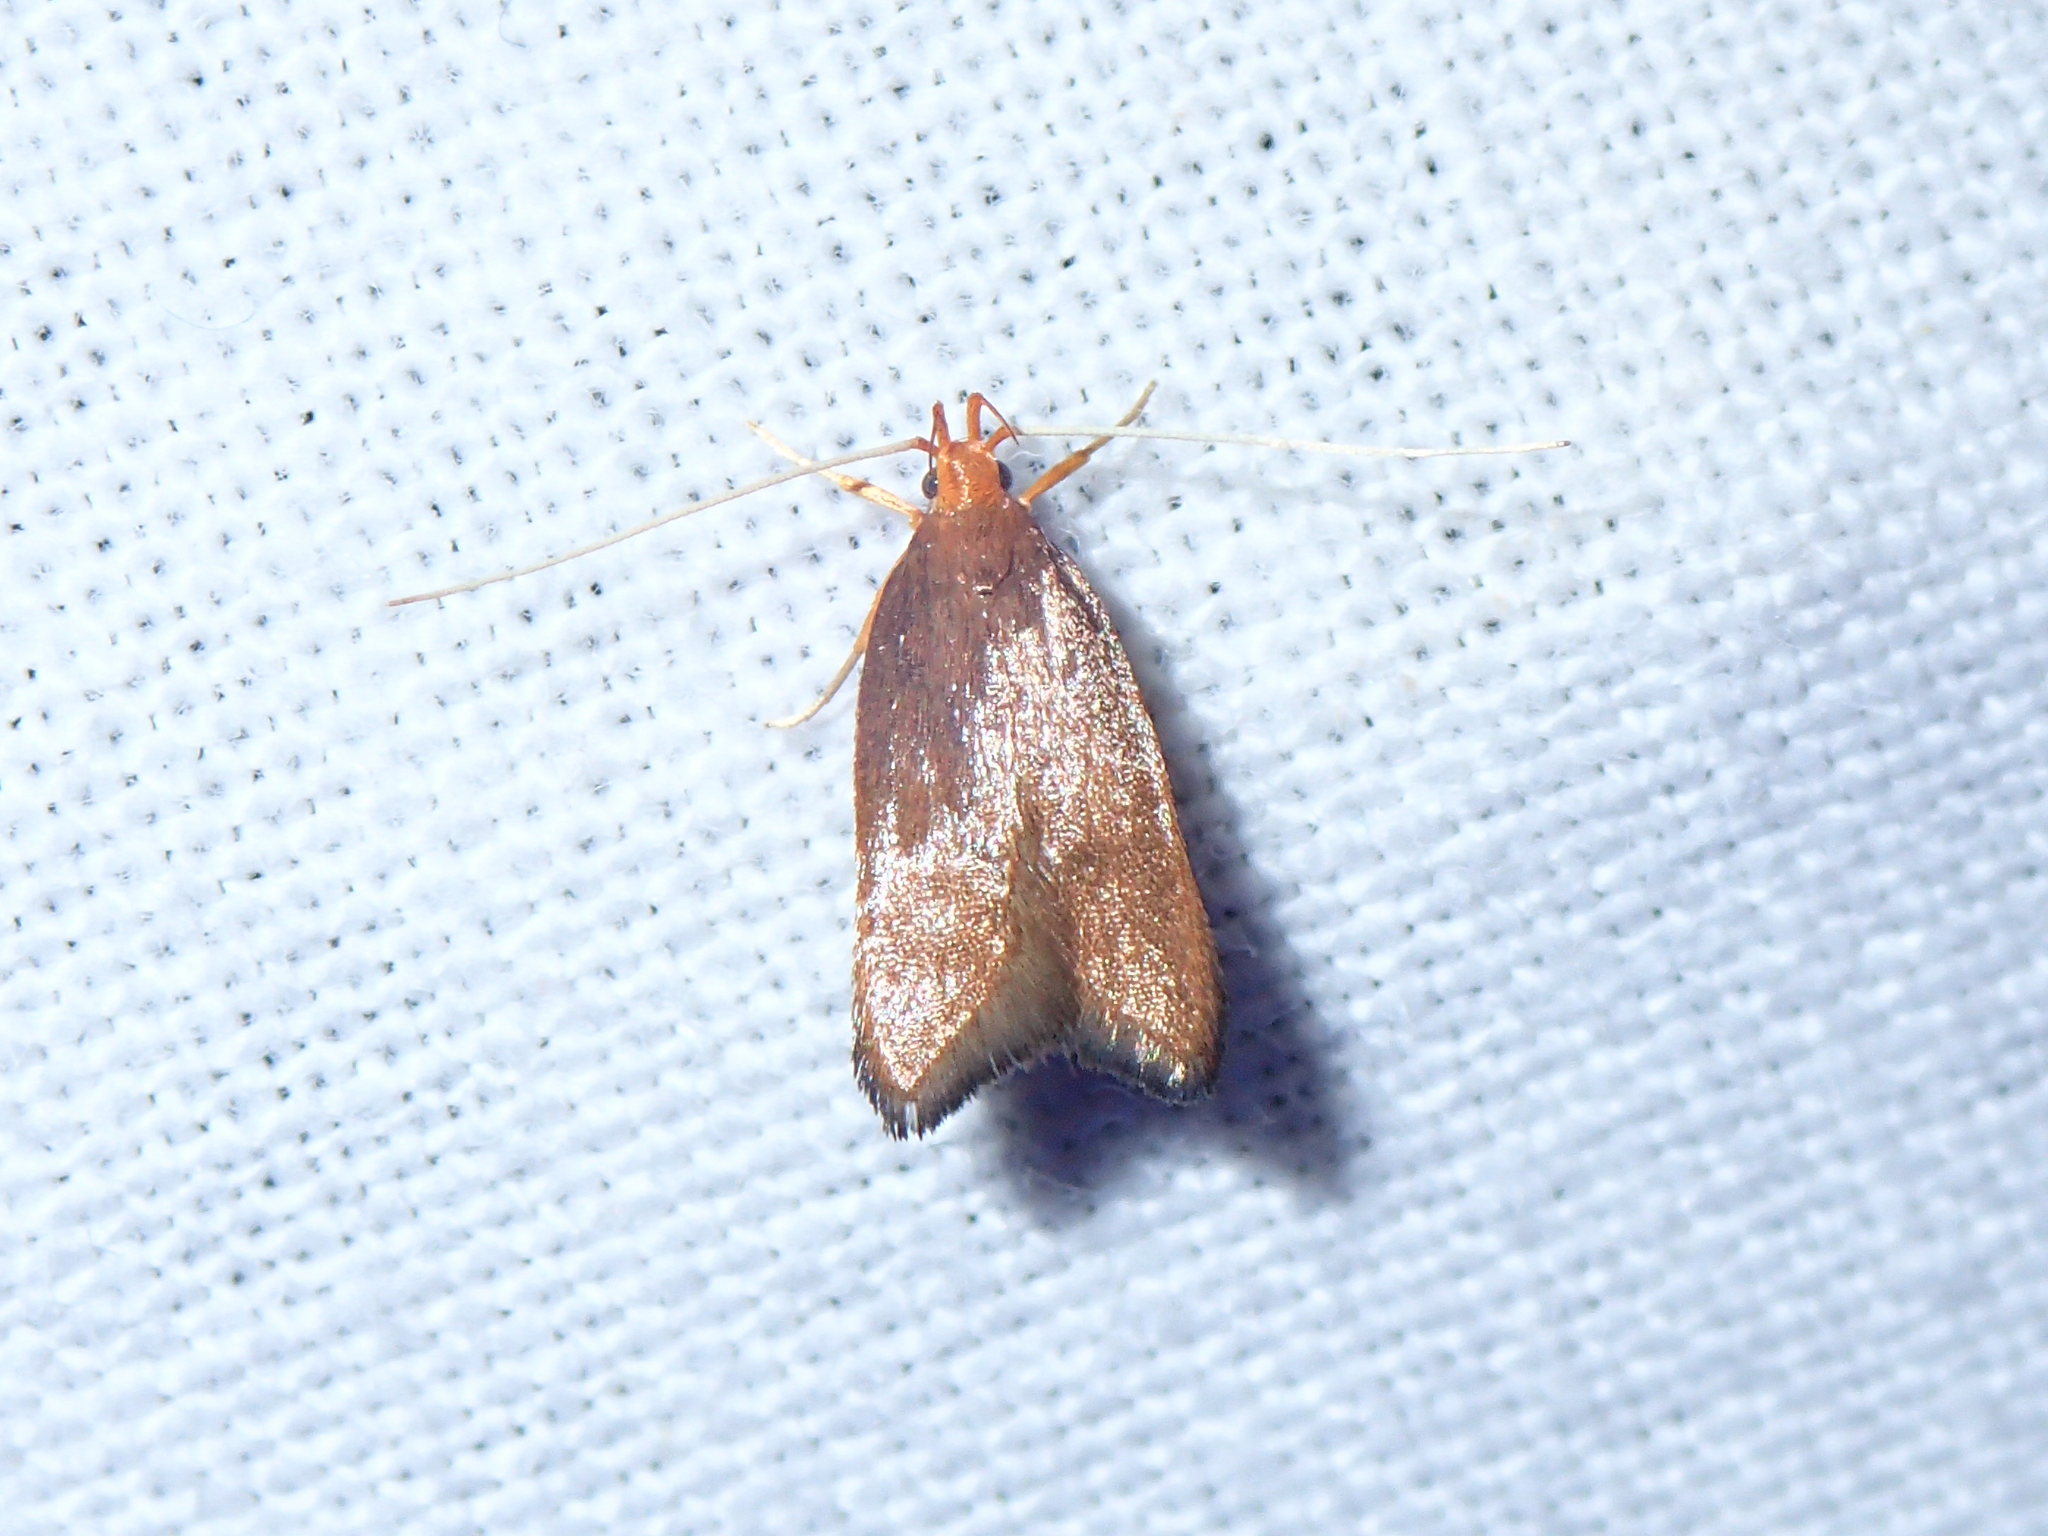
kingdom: Animalia
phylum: Arthropoda
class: Insecta
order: Lepidoptera
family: Lecithoceridae
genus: Eurodachtha
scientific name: Eurodachtha pallicornella
